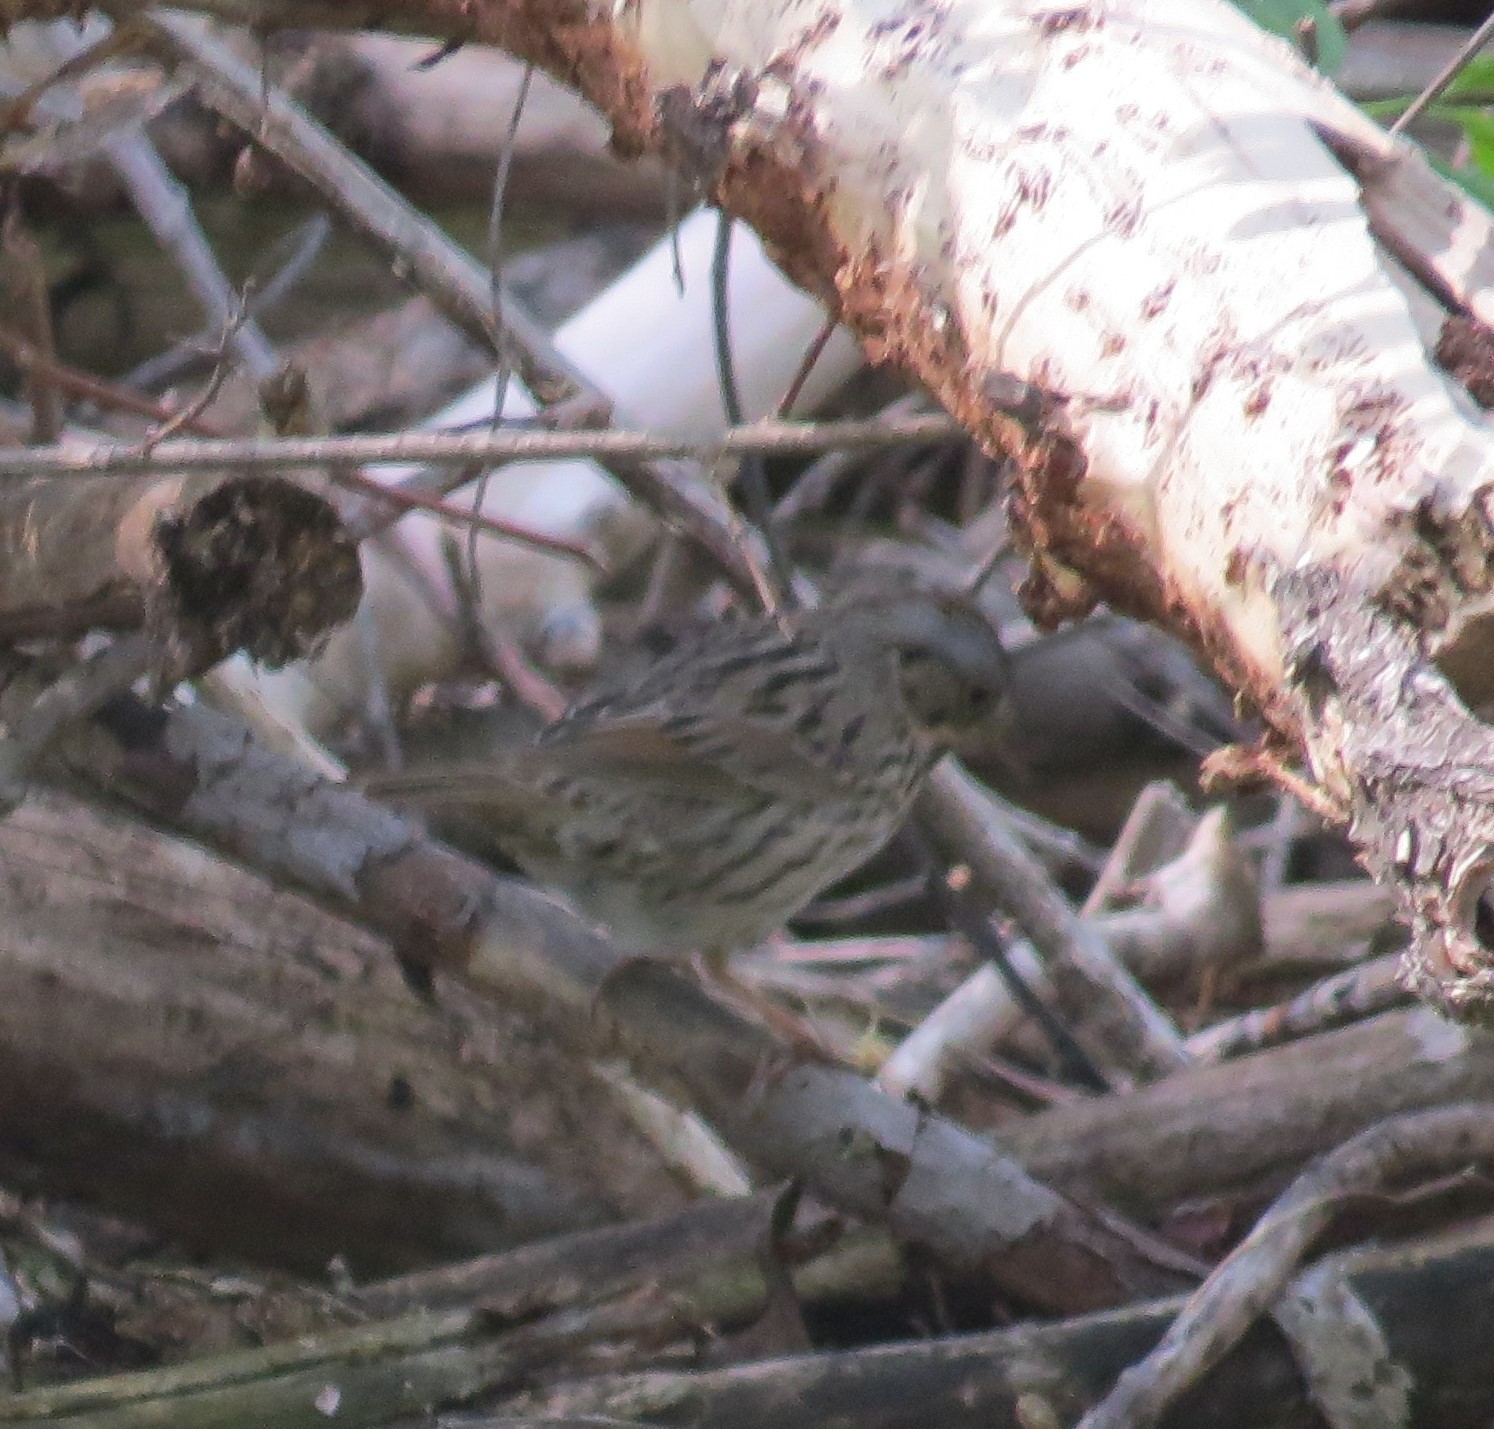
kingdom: Animalia
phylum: Chordata
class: Aves
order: Passeriformes
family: Passerellidae
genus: Melospiza
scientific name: Melospiza lincolnii
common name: Lincoln's sparrow
